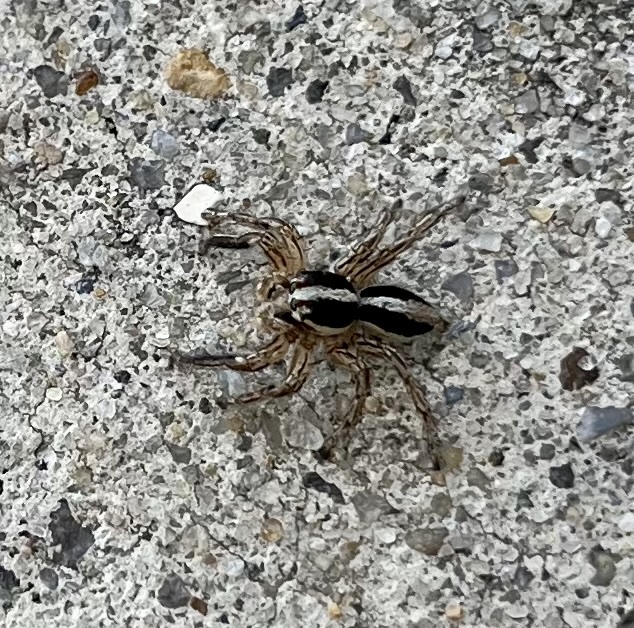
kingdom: Animalia
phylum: Arthropoda
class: Arachnida
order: Araneae
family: Salticidae
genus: Plexippus
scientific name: Plexippus paykulli
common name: Pantropical jumper
